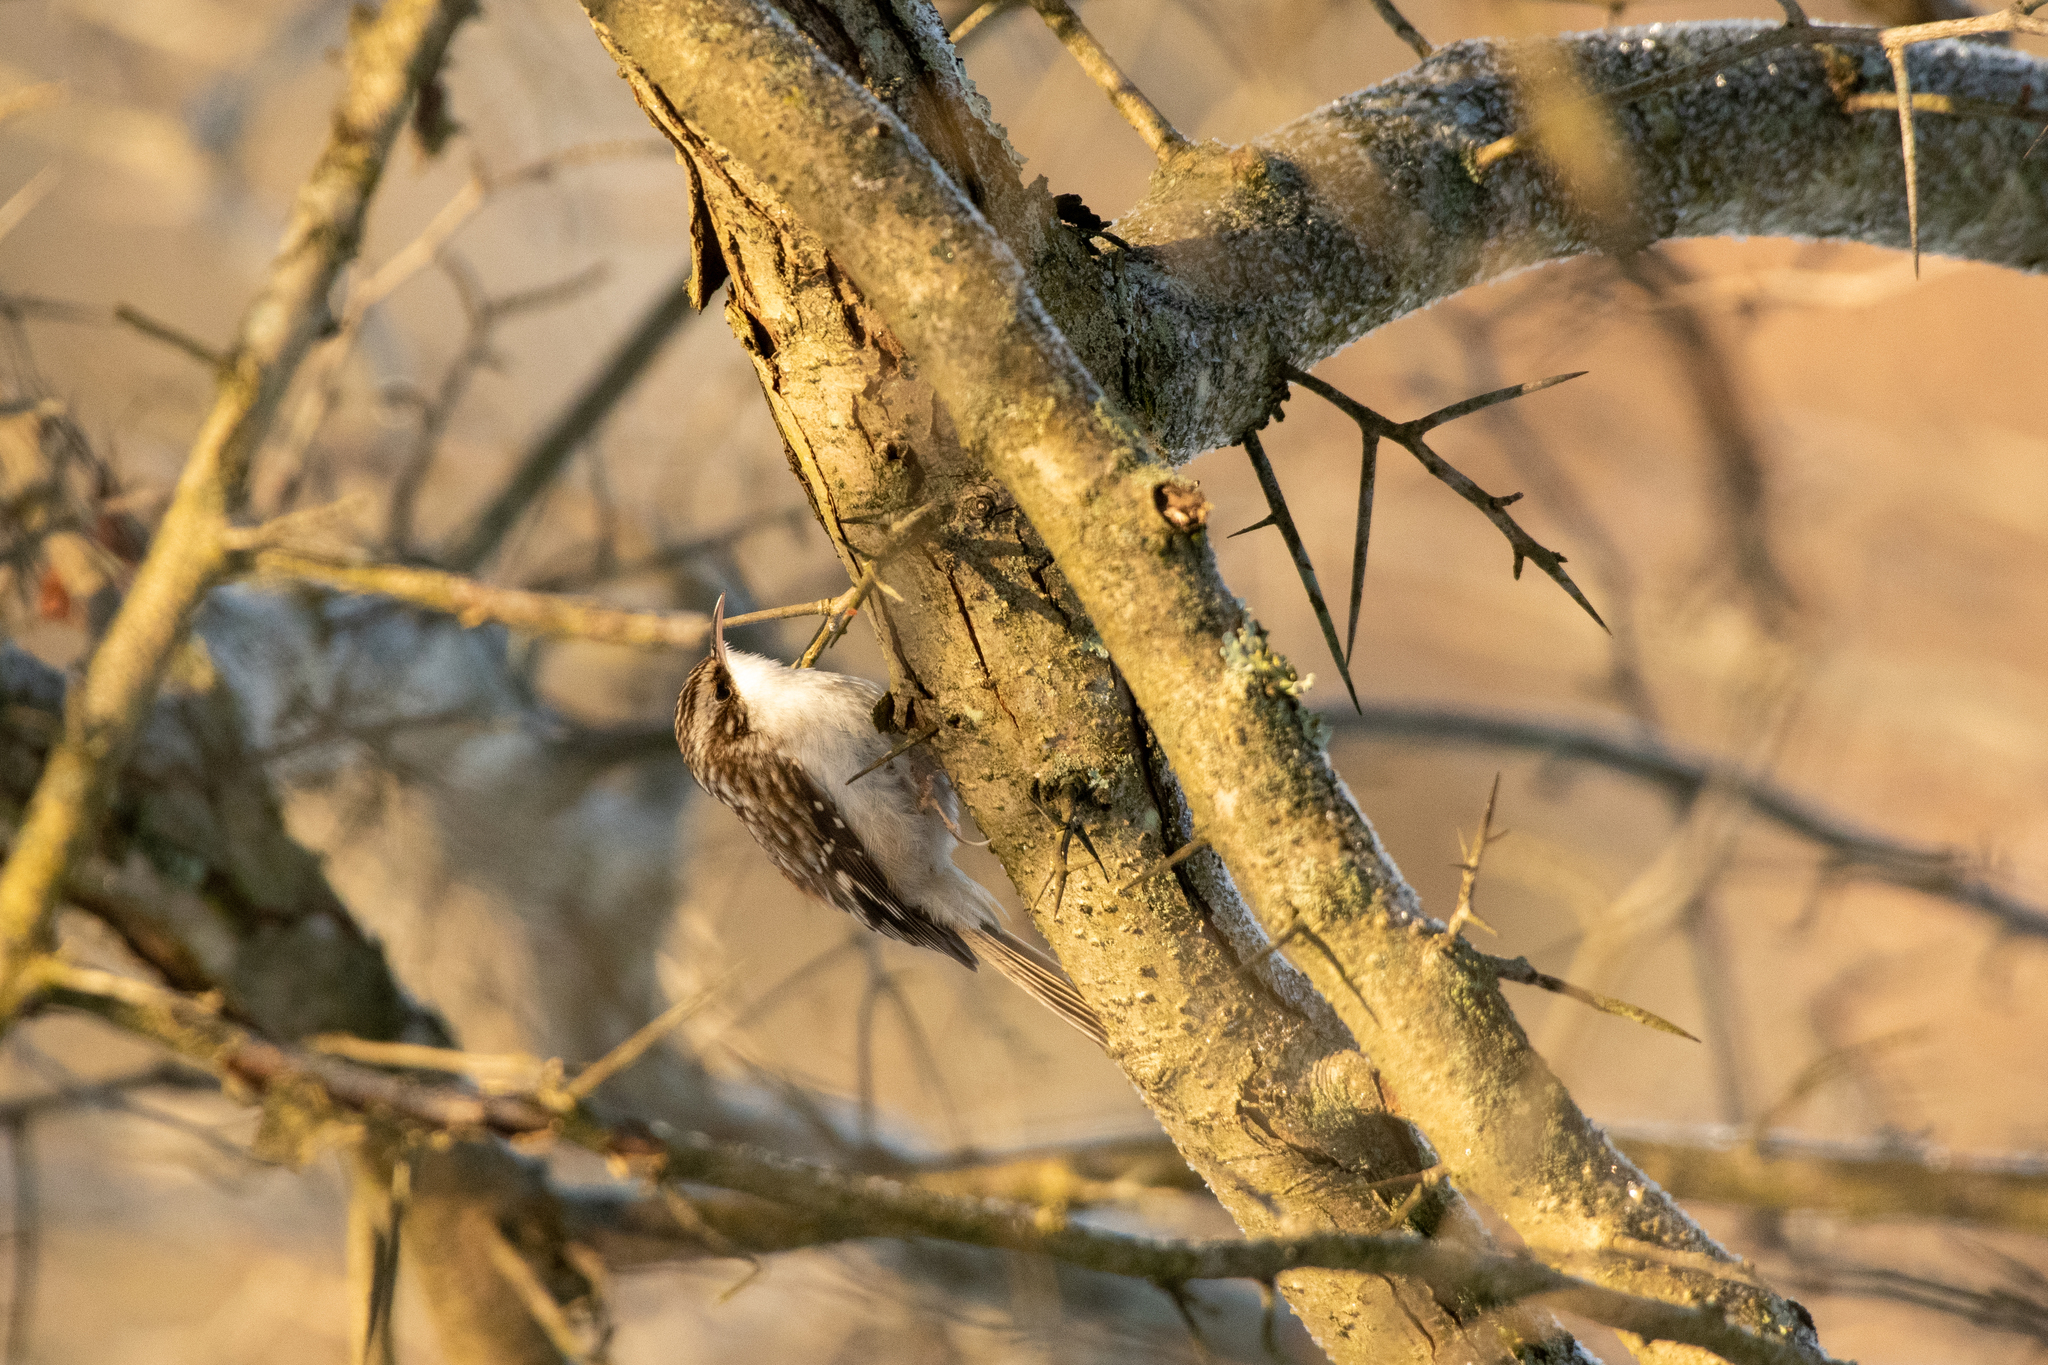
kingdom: Animalia
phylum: Chordata
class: Aves
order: Passeriformes
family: Certhiidae
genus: Certhia
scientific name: Certhia americana
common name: Brown creeper
